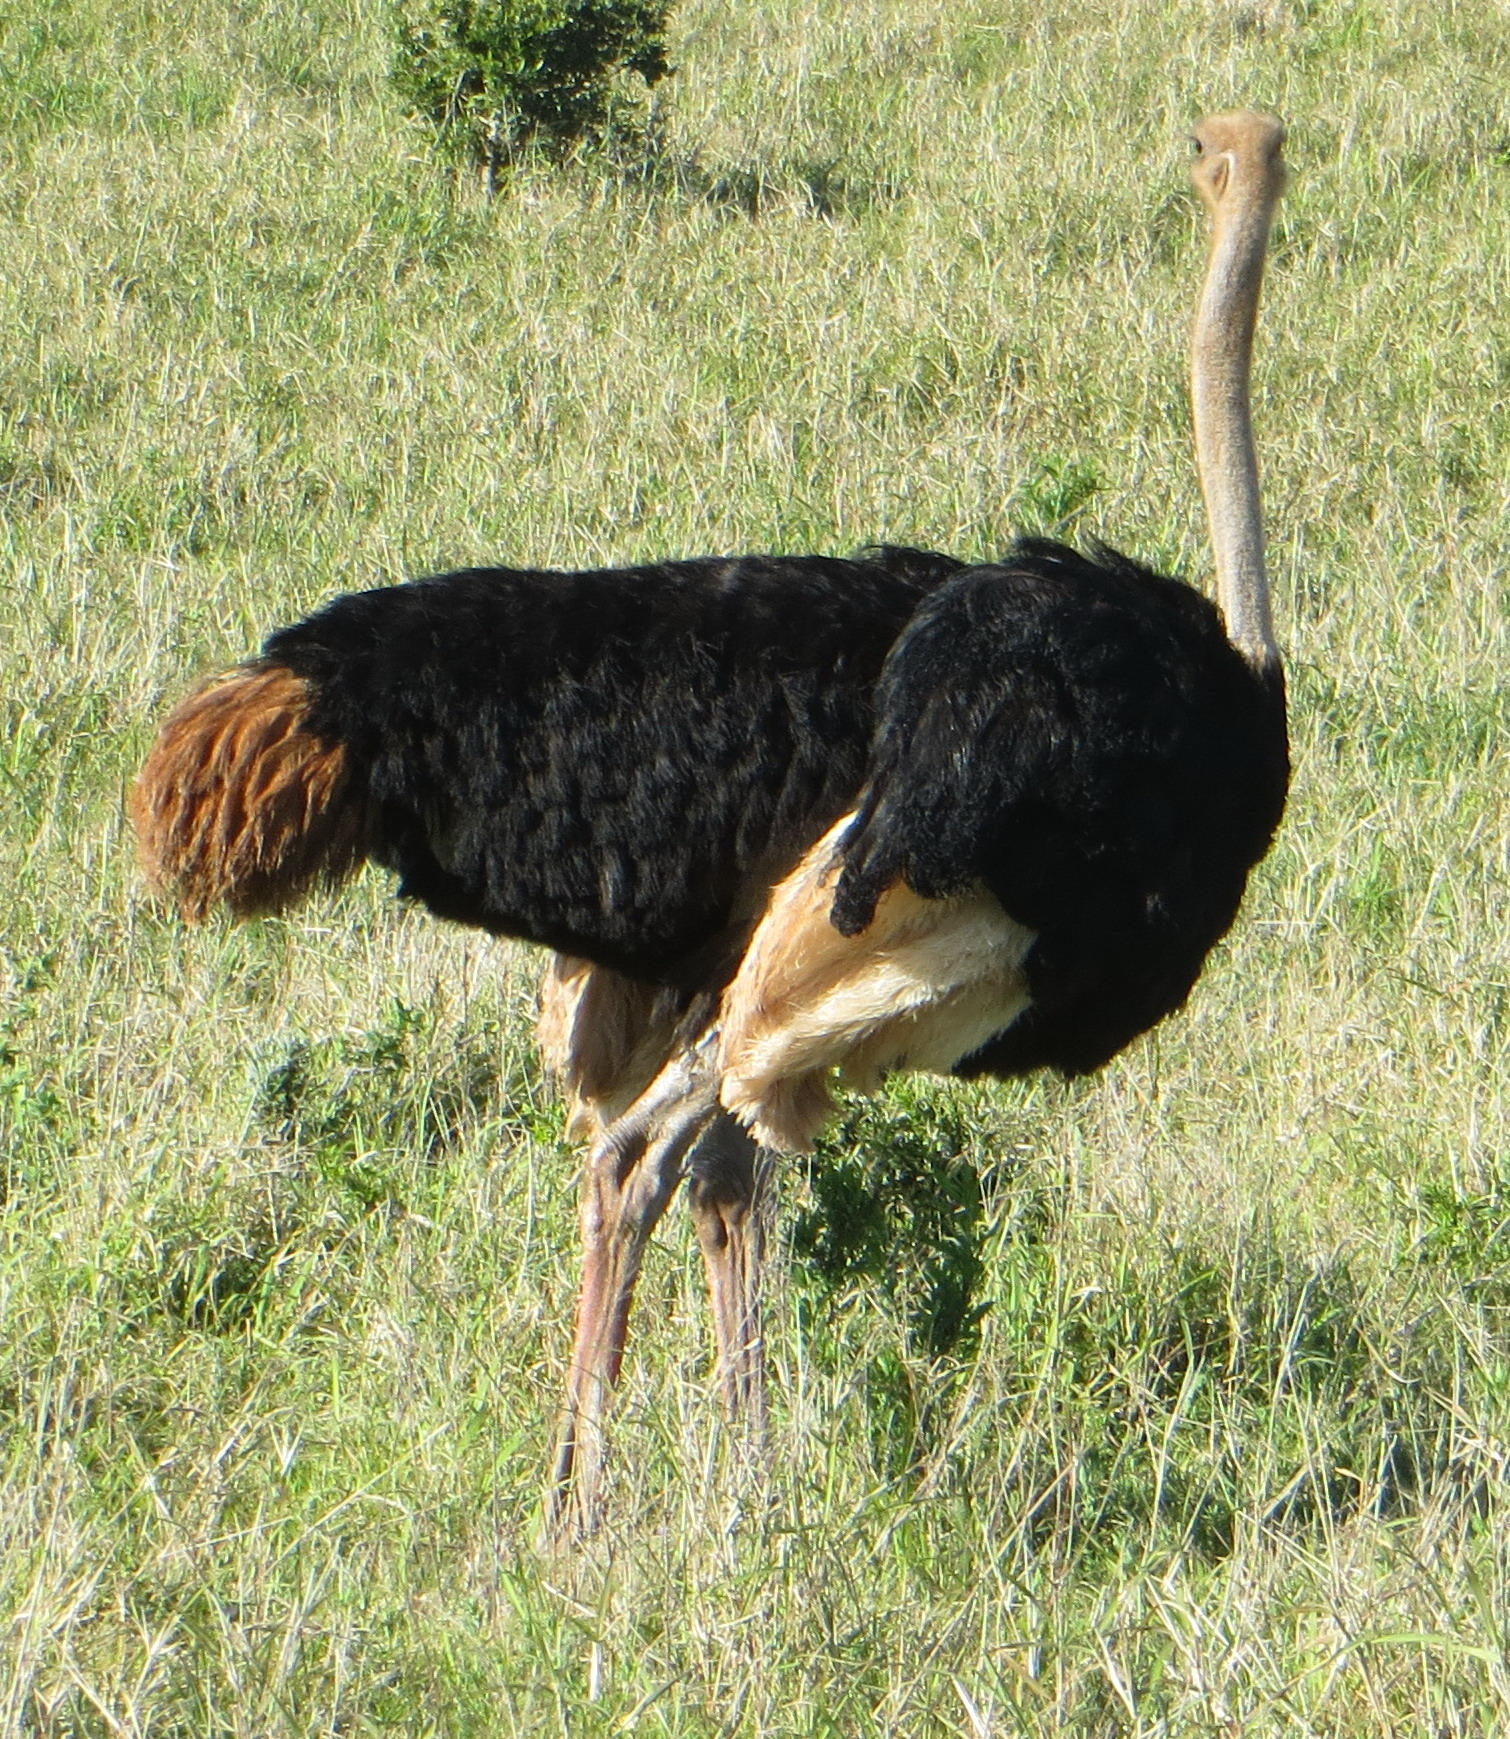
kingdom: Animalia
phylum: Chordata
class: Aves
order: Struthioniformes
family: Struthionidae
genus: Struthio
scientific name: Struthio camelus
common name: Common ostrich
